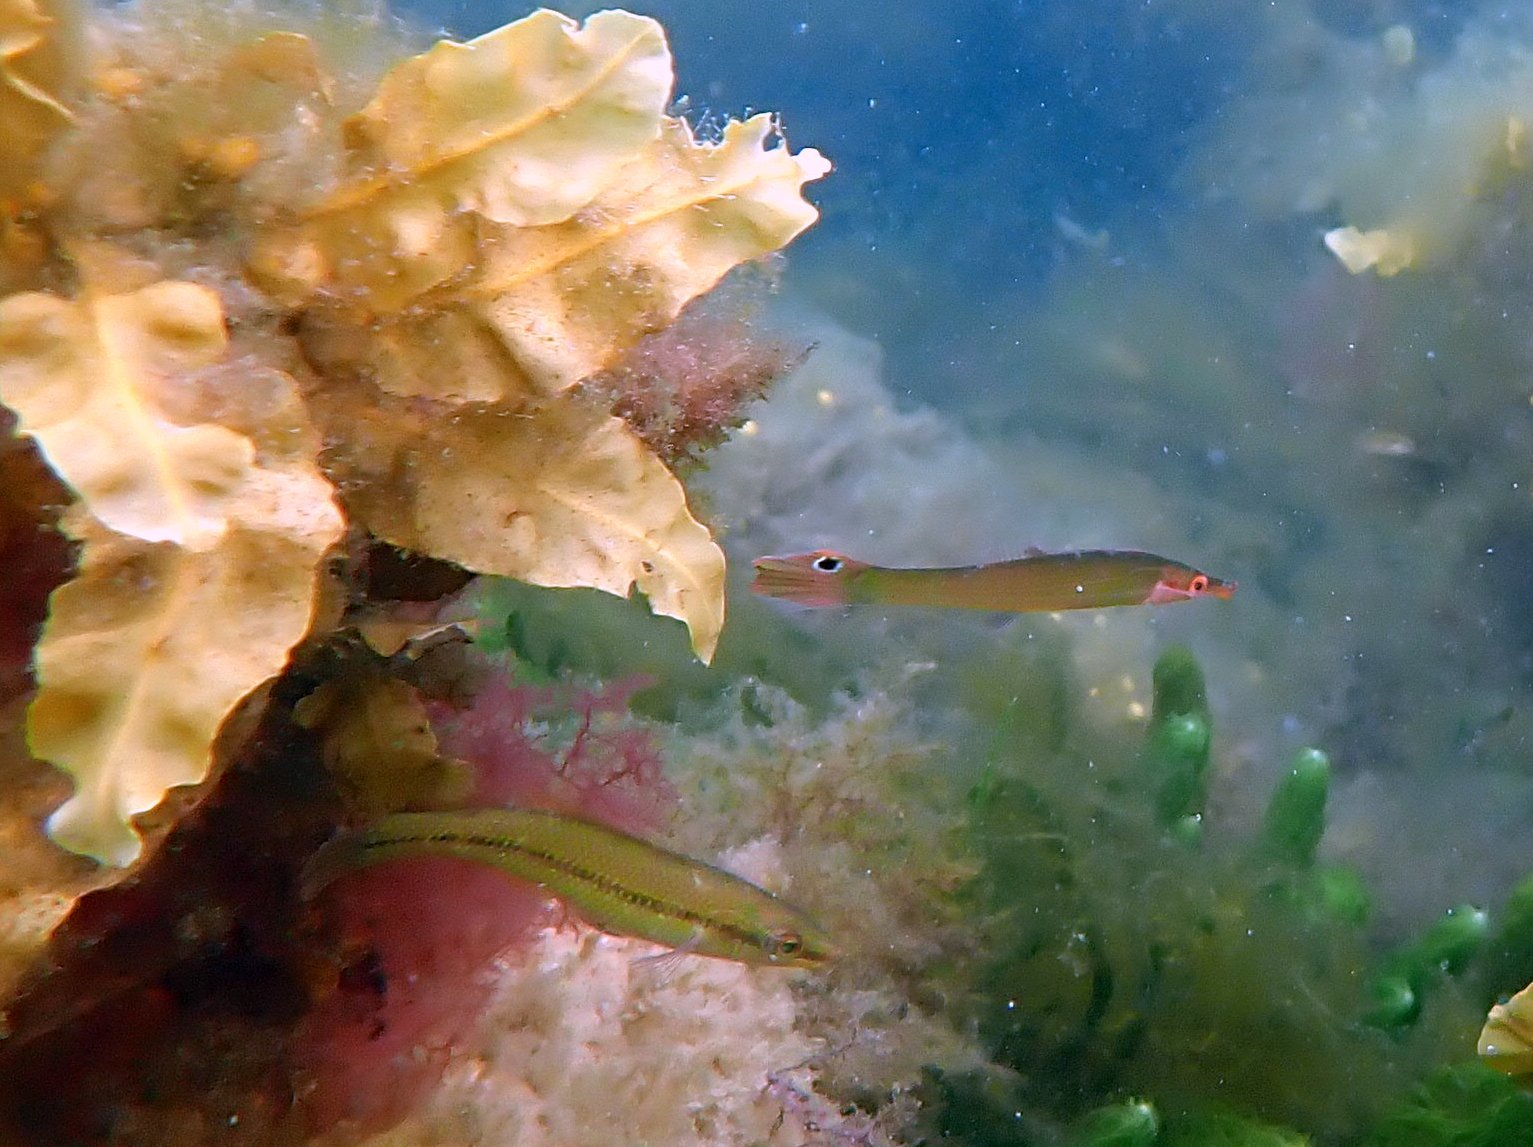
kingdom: Animalia
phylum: Chordata
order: Perciformes
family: Odacidae
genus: Siphonognathus
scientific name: Siphonognathus
